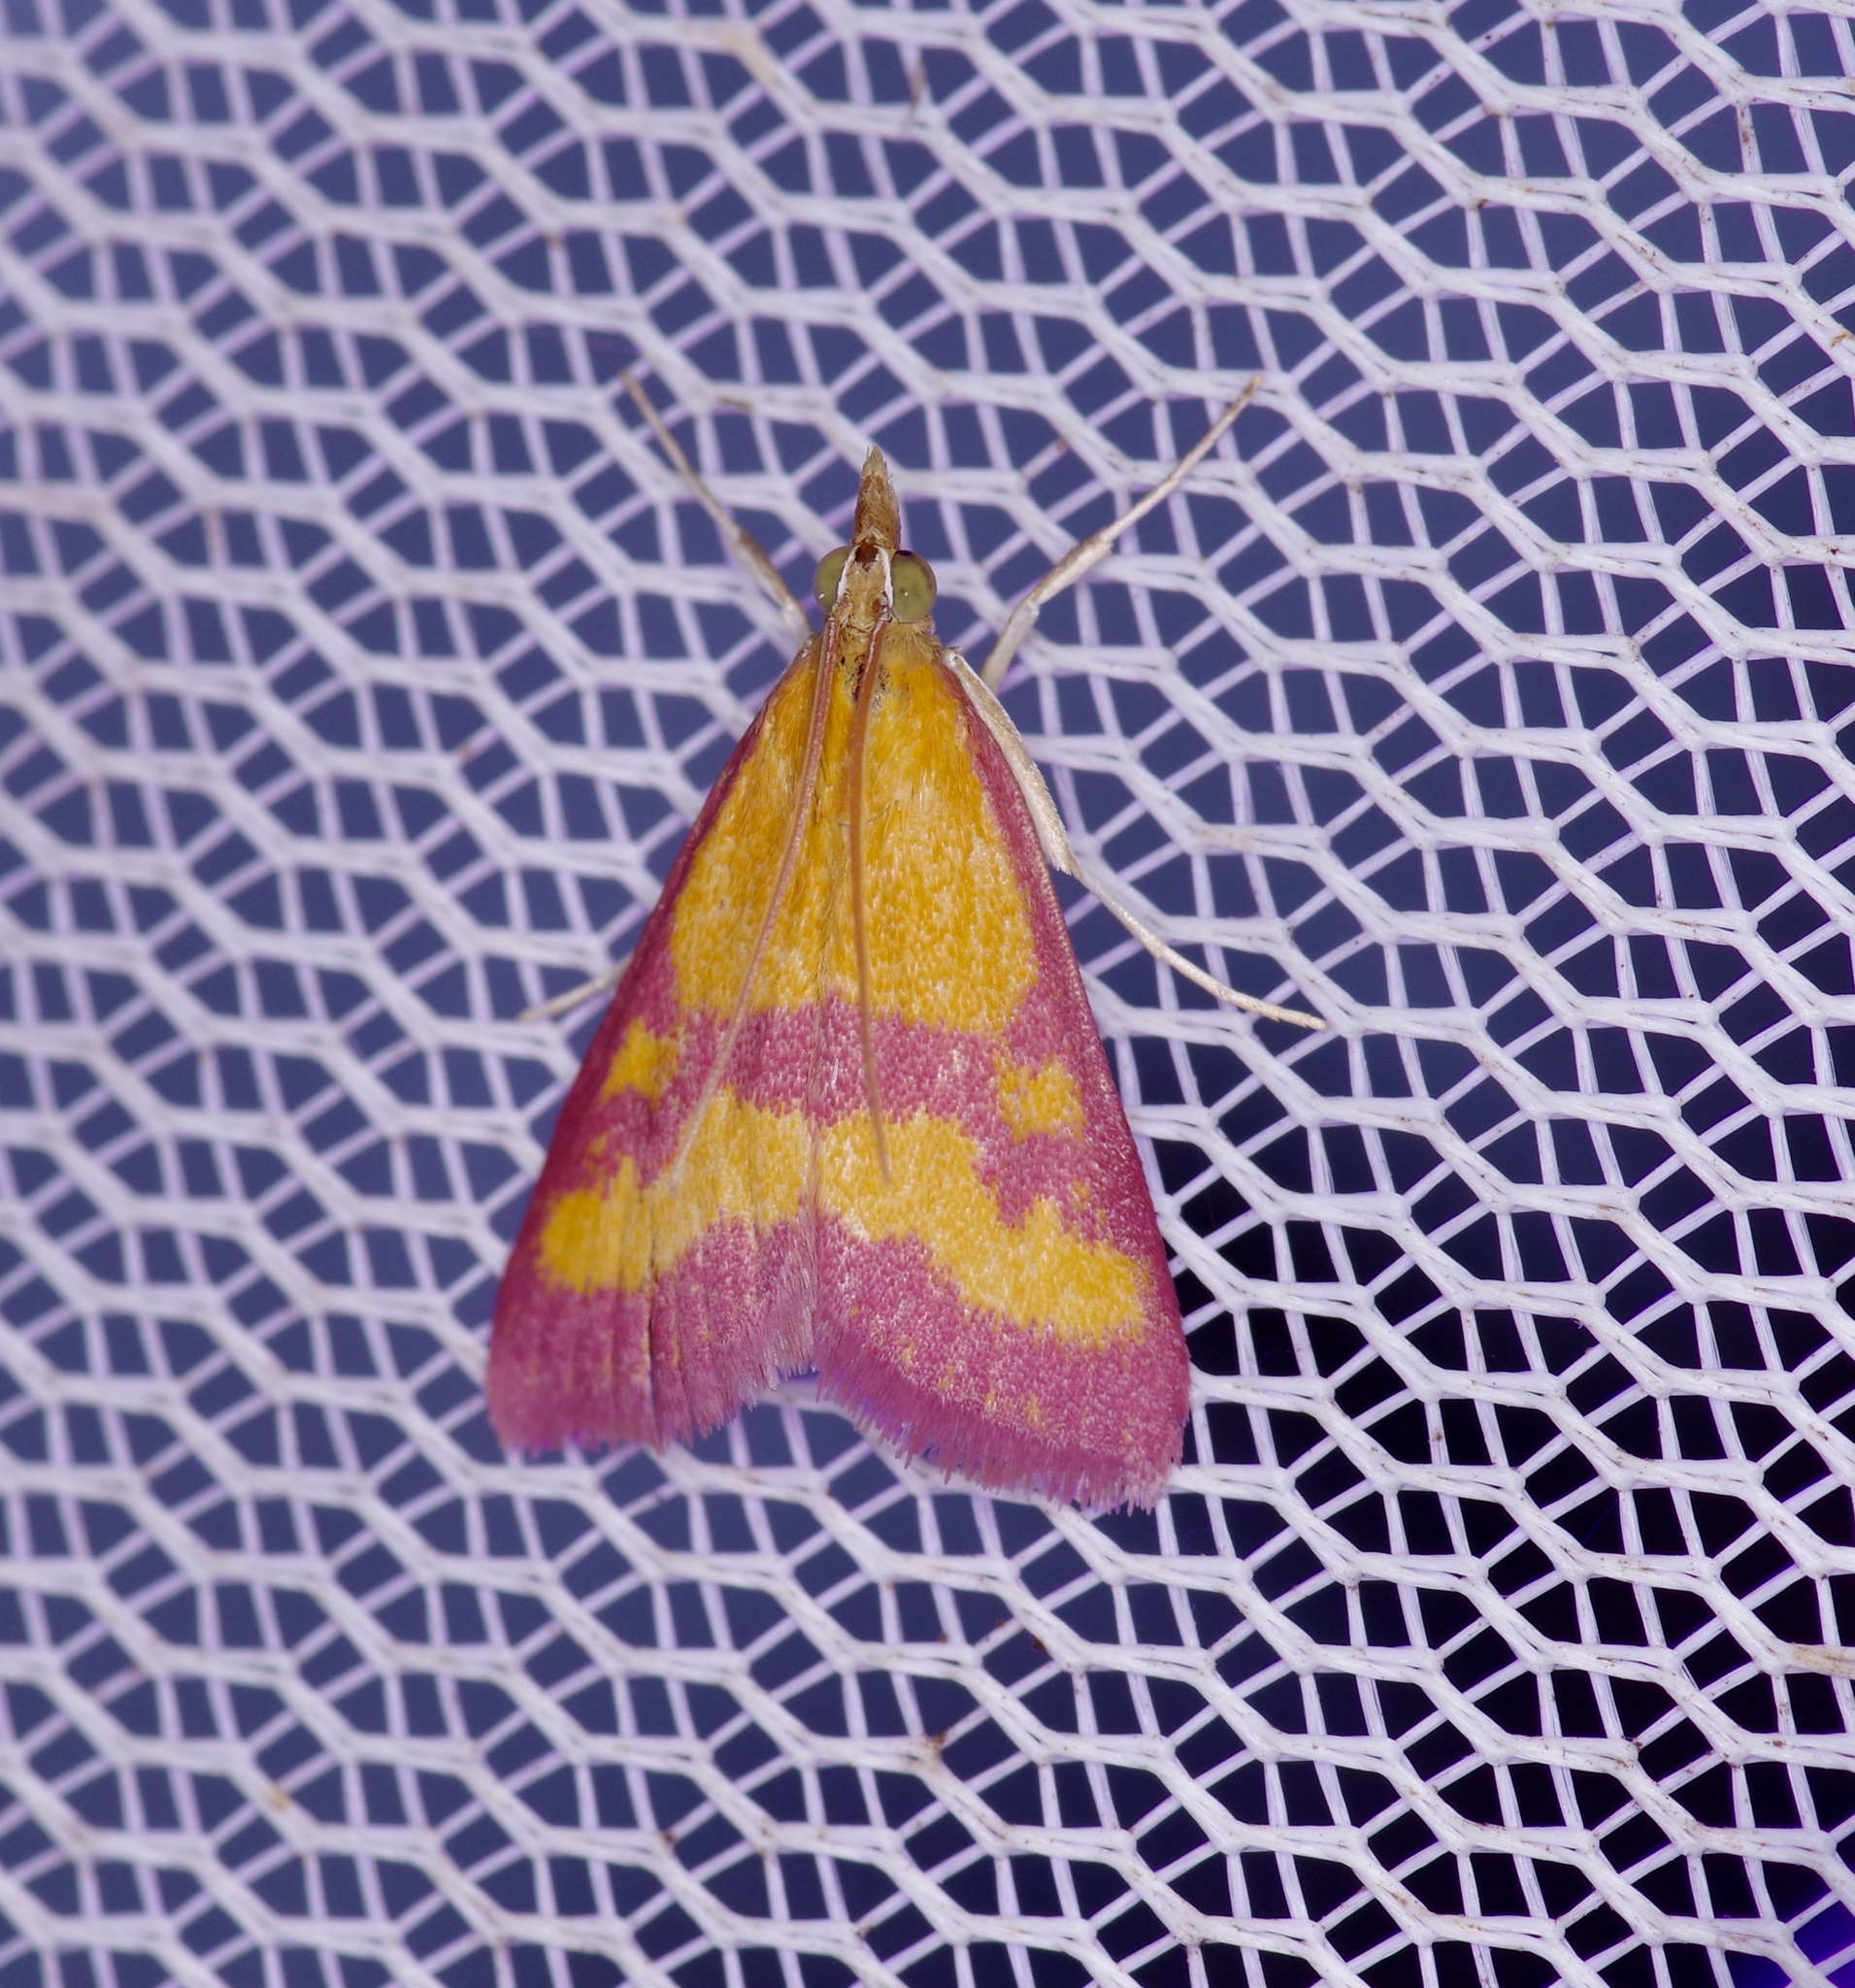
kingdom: Animalia
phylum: Arthropoda
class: Insecta
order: Lepidoptera
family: Crambidae
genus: Pyrausta
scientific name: Pyrausta laticlavia
